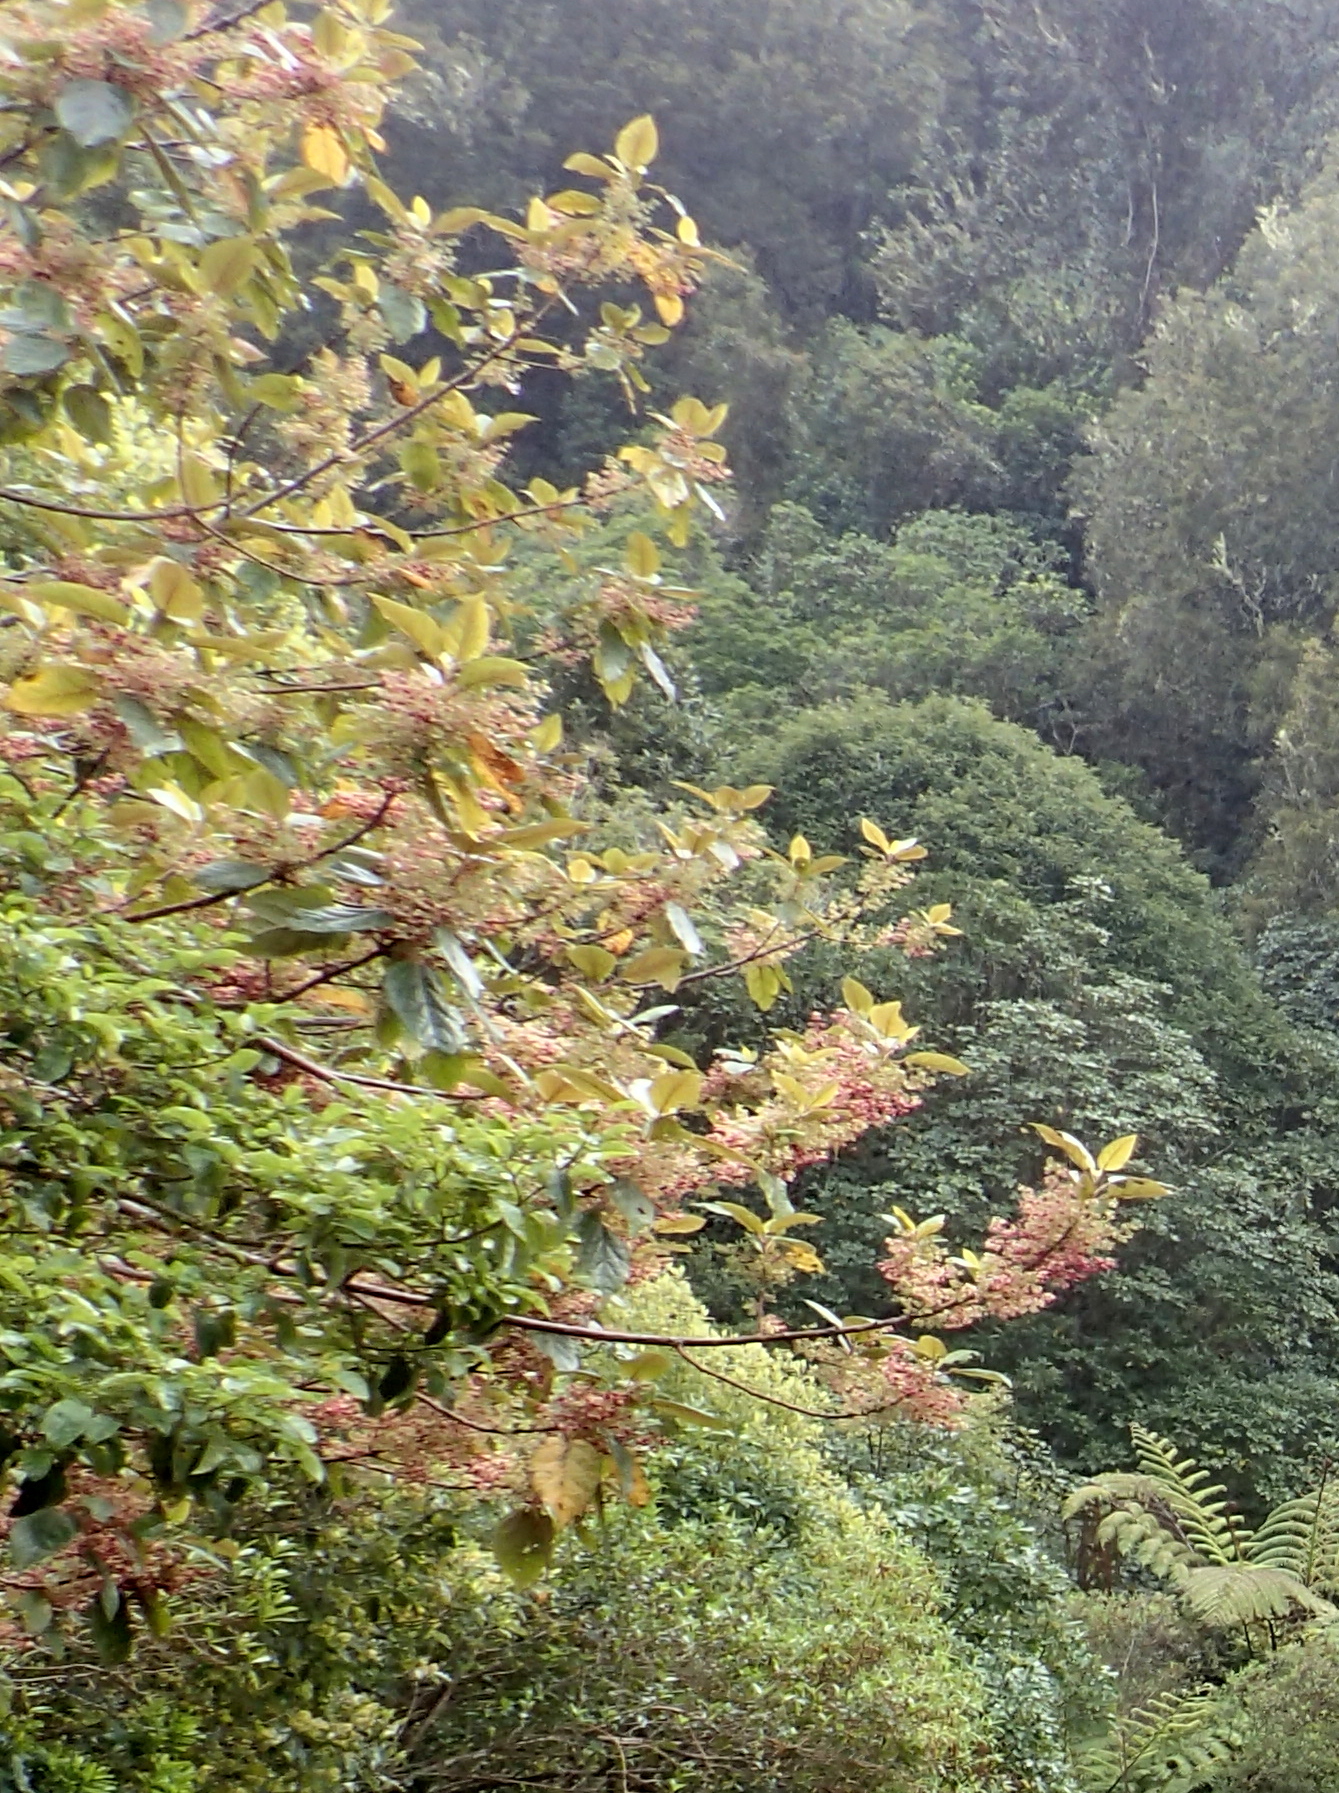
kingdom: Plantae
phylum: Tracheophyta
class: Magnoliopsida
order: Oxalidales
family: Elaeocarpaceae
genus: Aristotelia
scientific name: Aristotelia serrata
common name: New zealand wineberry
